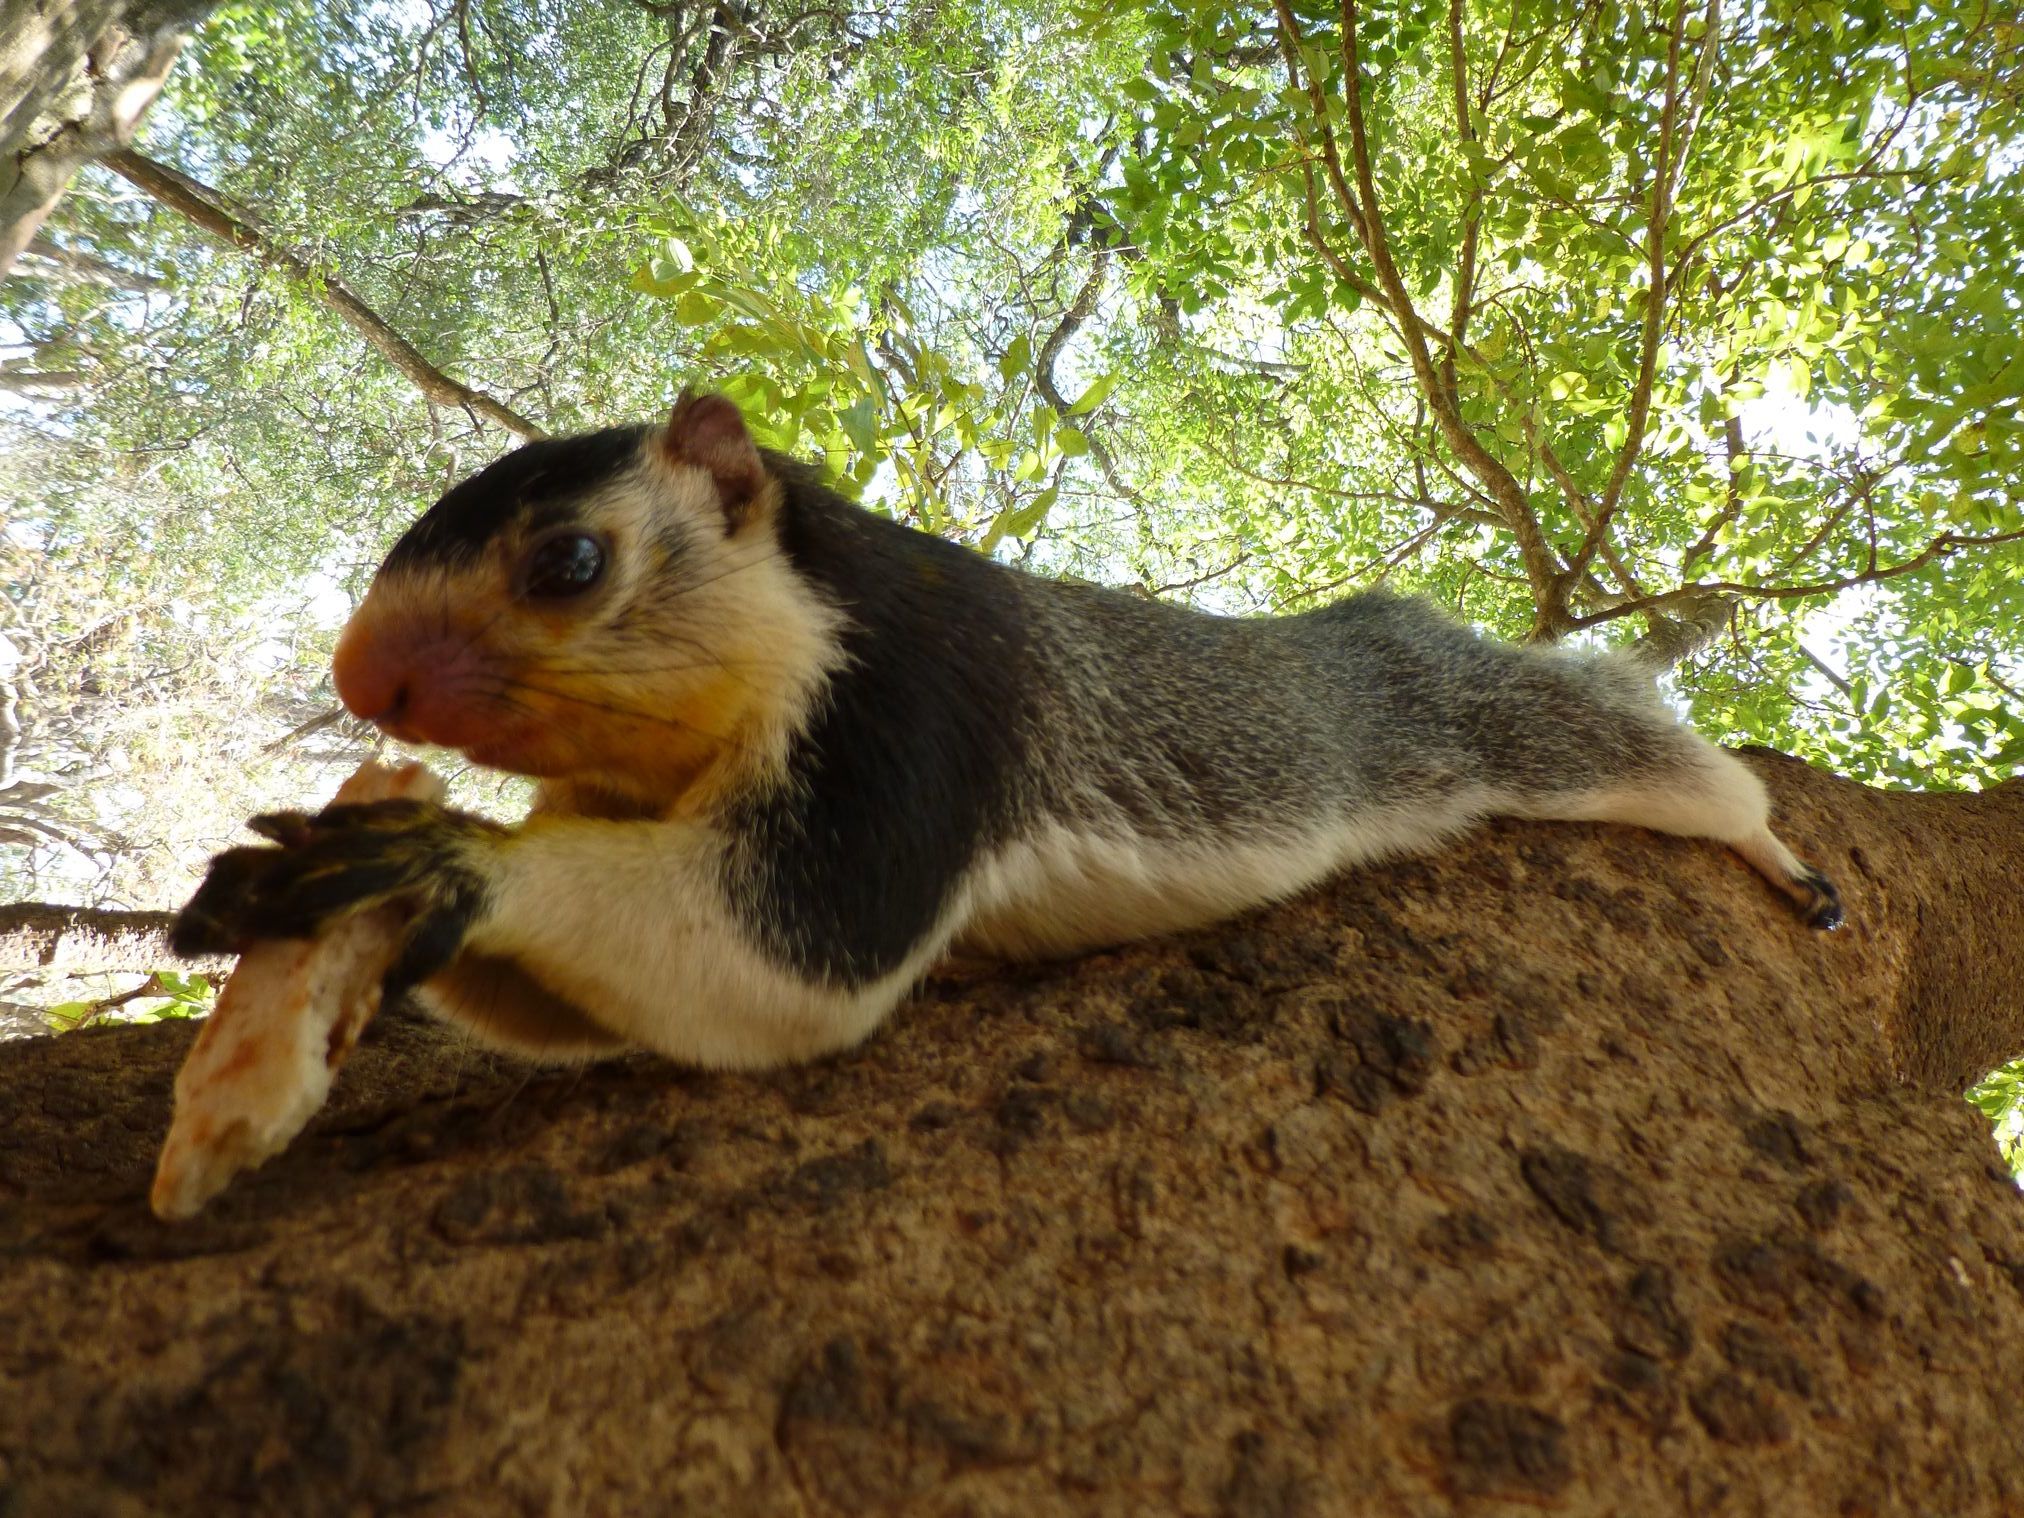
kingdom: Animalia
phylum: Chordata
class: Mammalia
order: Rodentia
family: Sciuridae
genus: Ratufa
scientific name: Ratufa macroura
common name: Sri lankan giant squirrel
